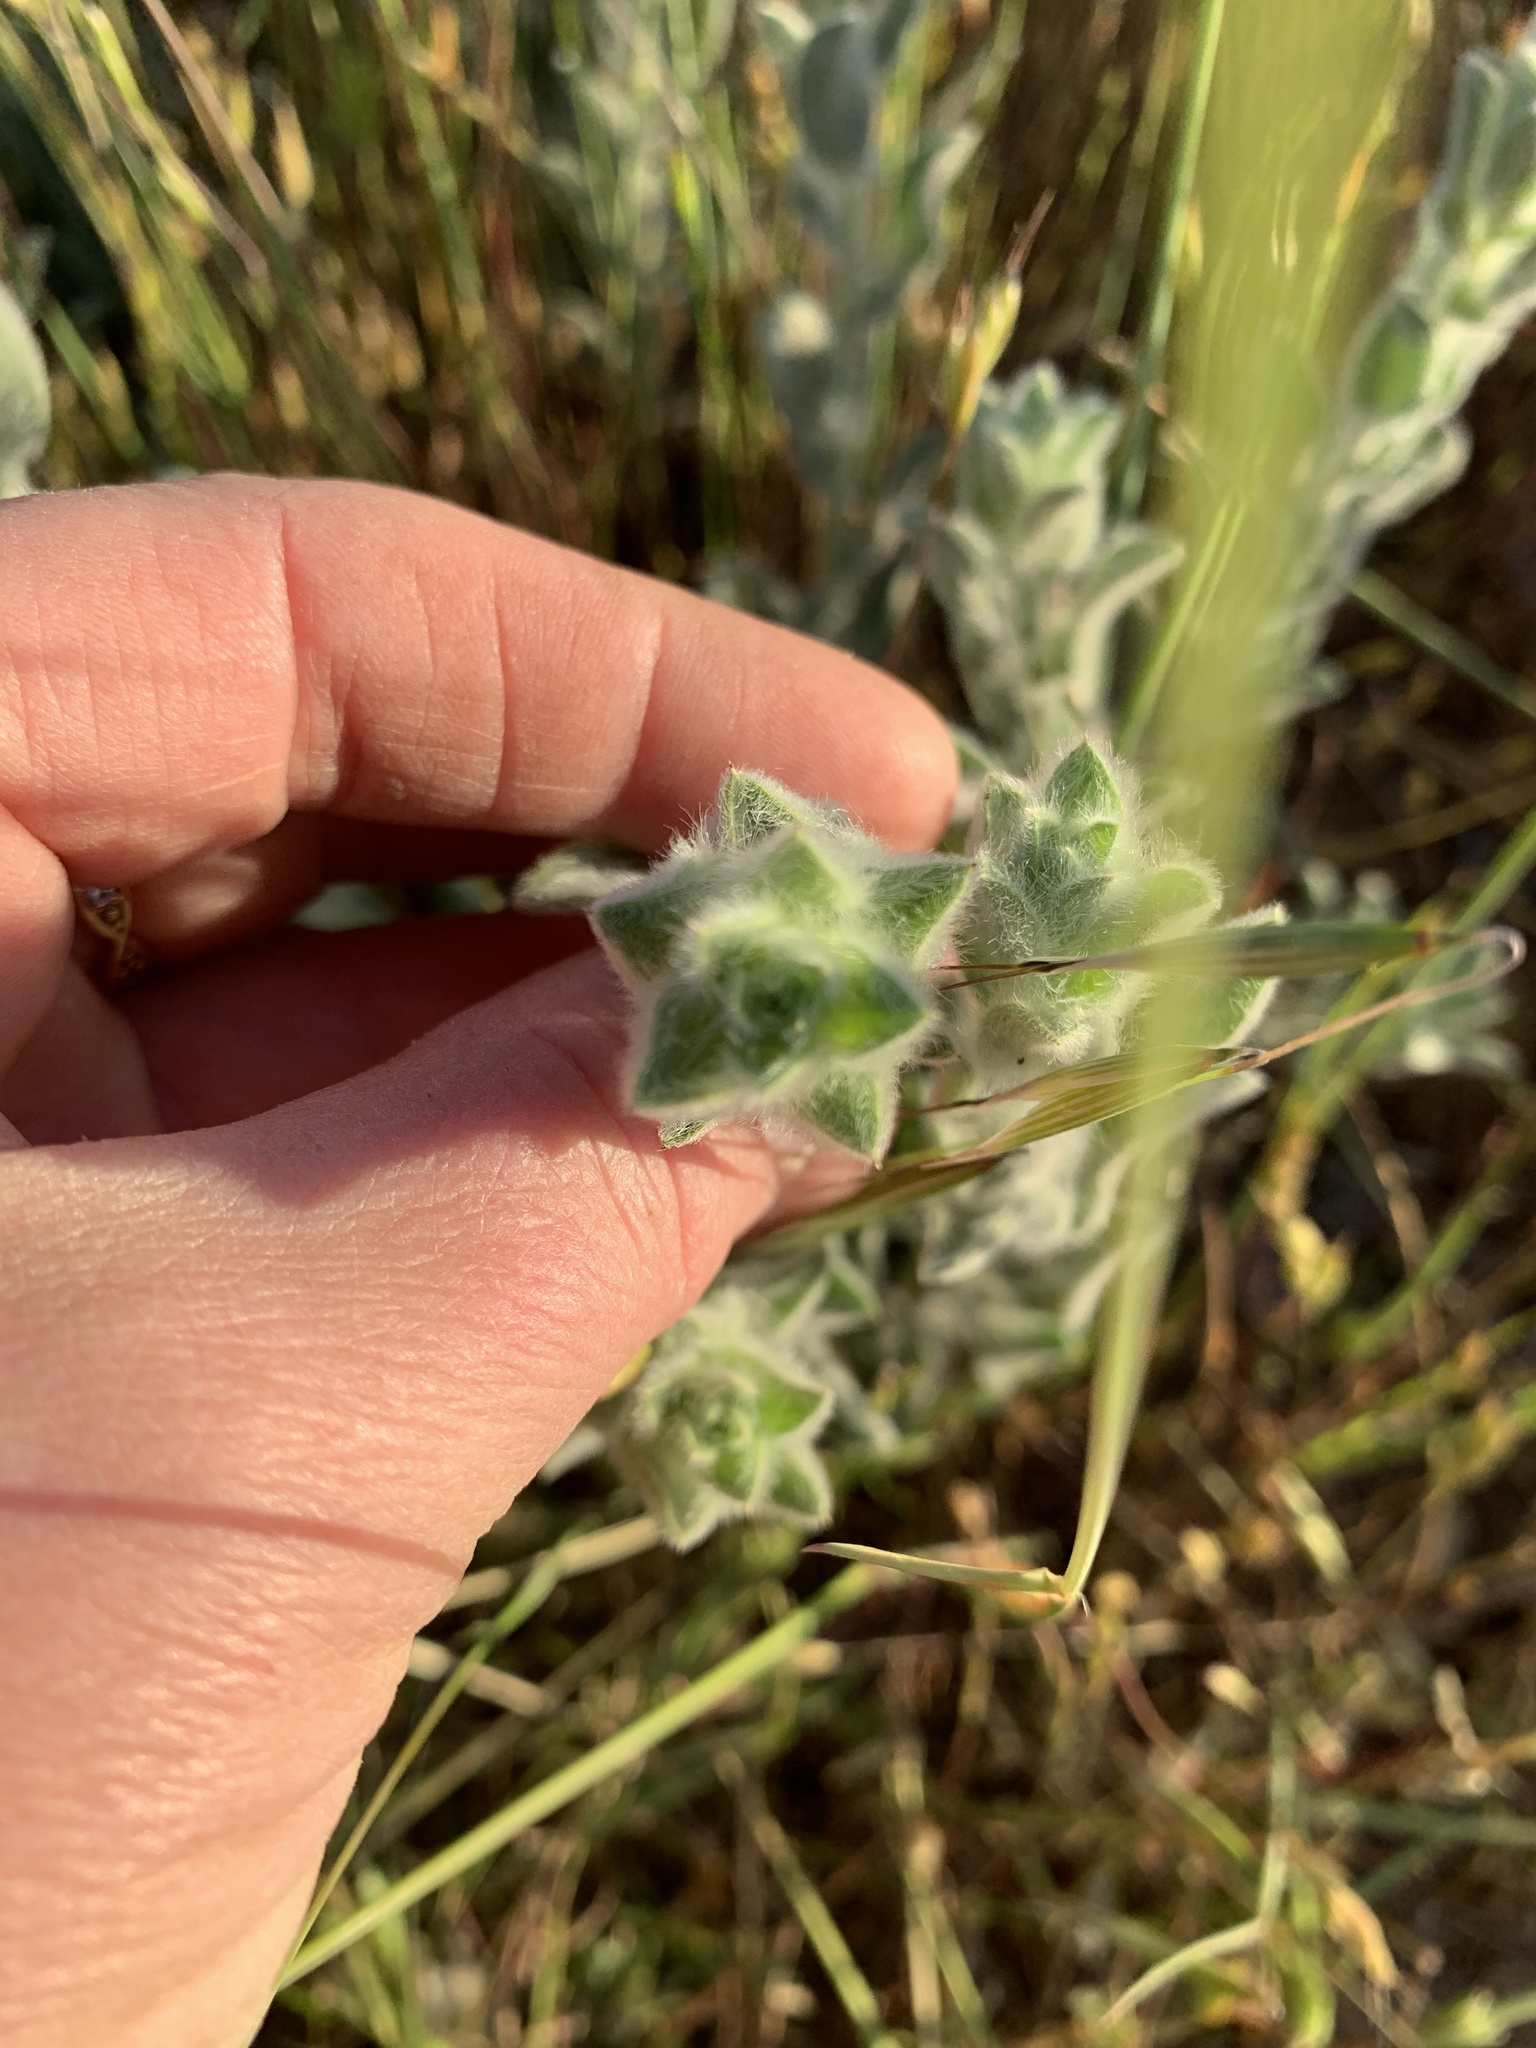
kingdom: Plantae
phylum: Tracheophyta
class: Magnoliopsida
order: Asterales
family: Asteraceae
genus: Heterotheca
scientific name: Heterotheca sessiliflora
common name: Sessile-flower golden-aster
